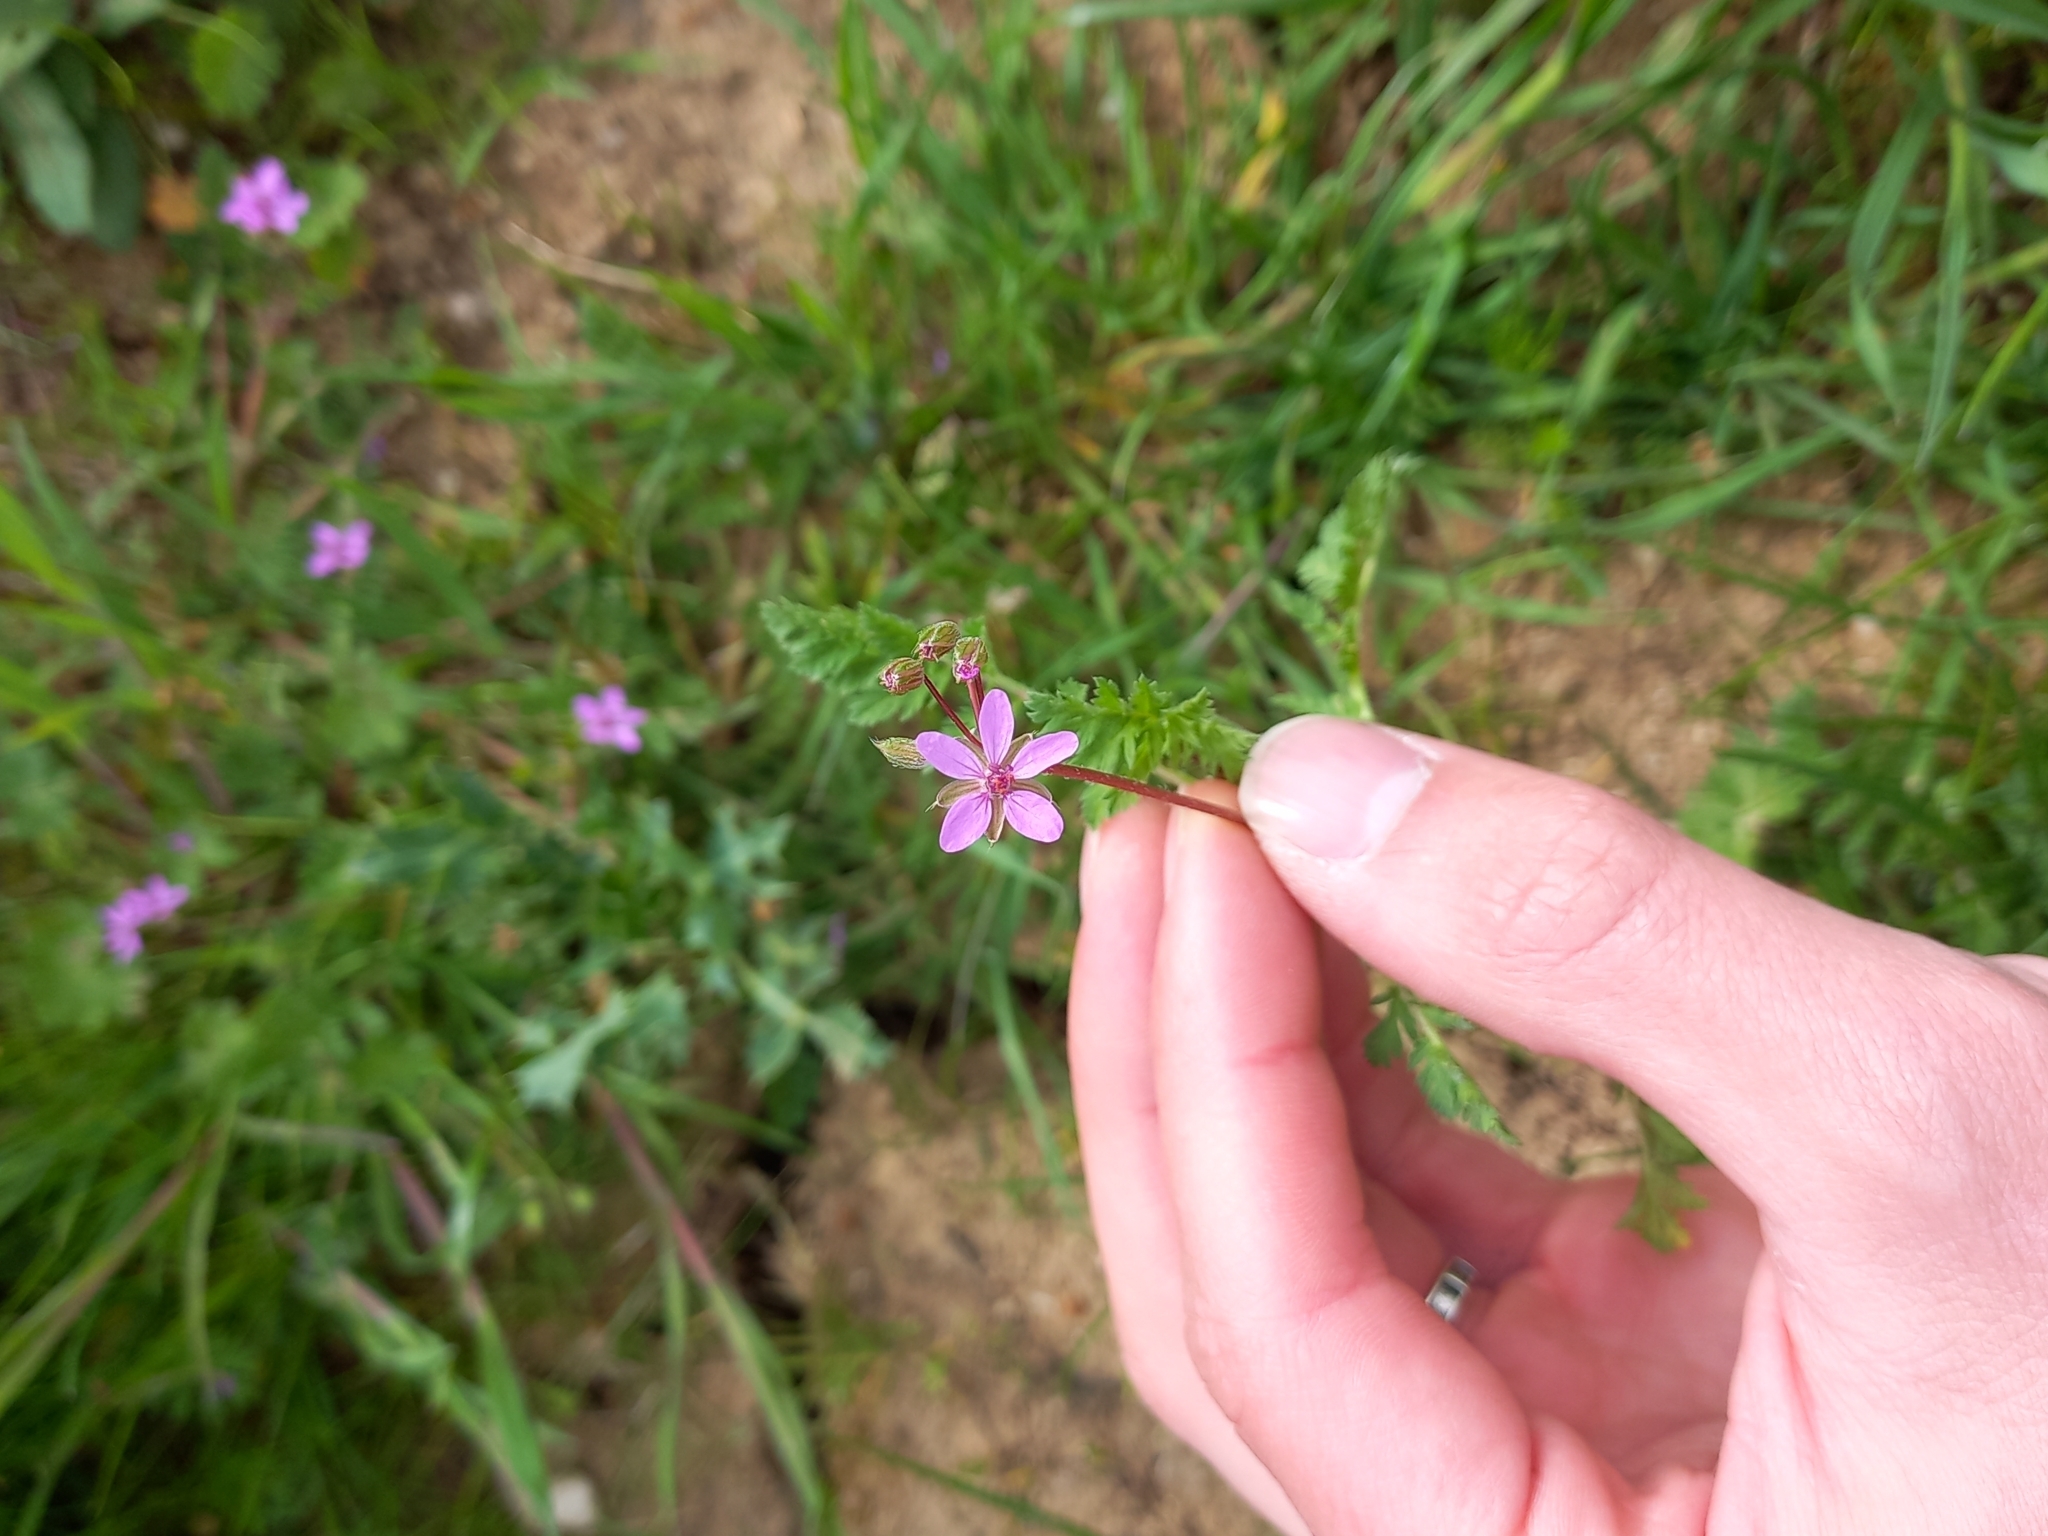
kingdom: Plantae
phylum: Tracheophyta
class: Magnoliopsida
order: Geraniales
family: Geraniaceae
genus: Erodium
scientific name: Erodium cicutarium
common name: Common stork's-bill
